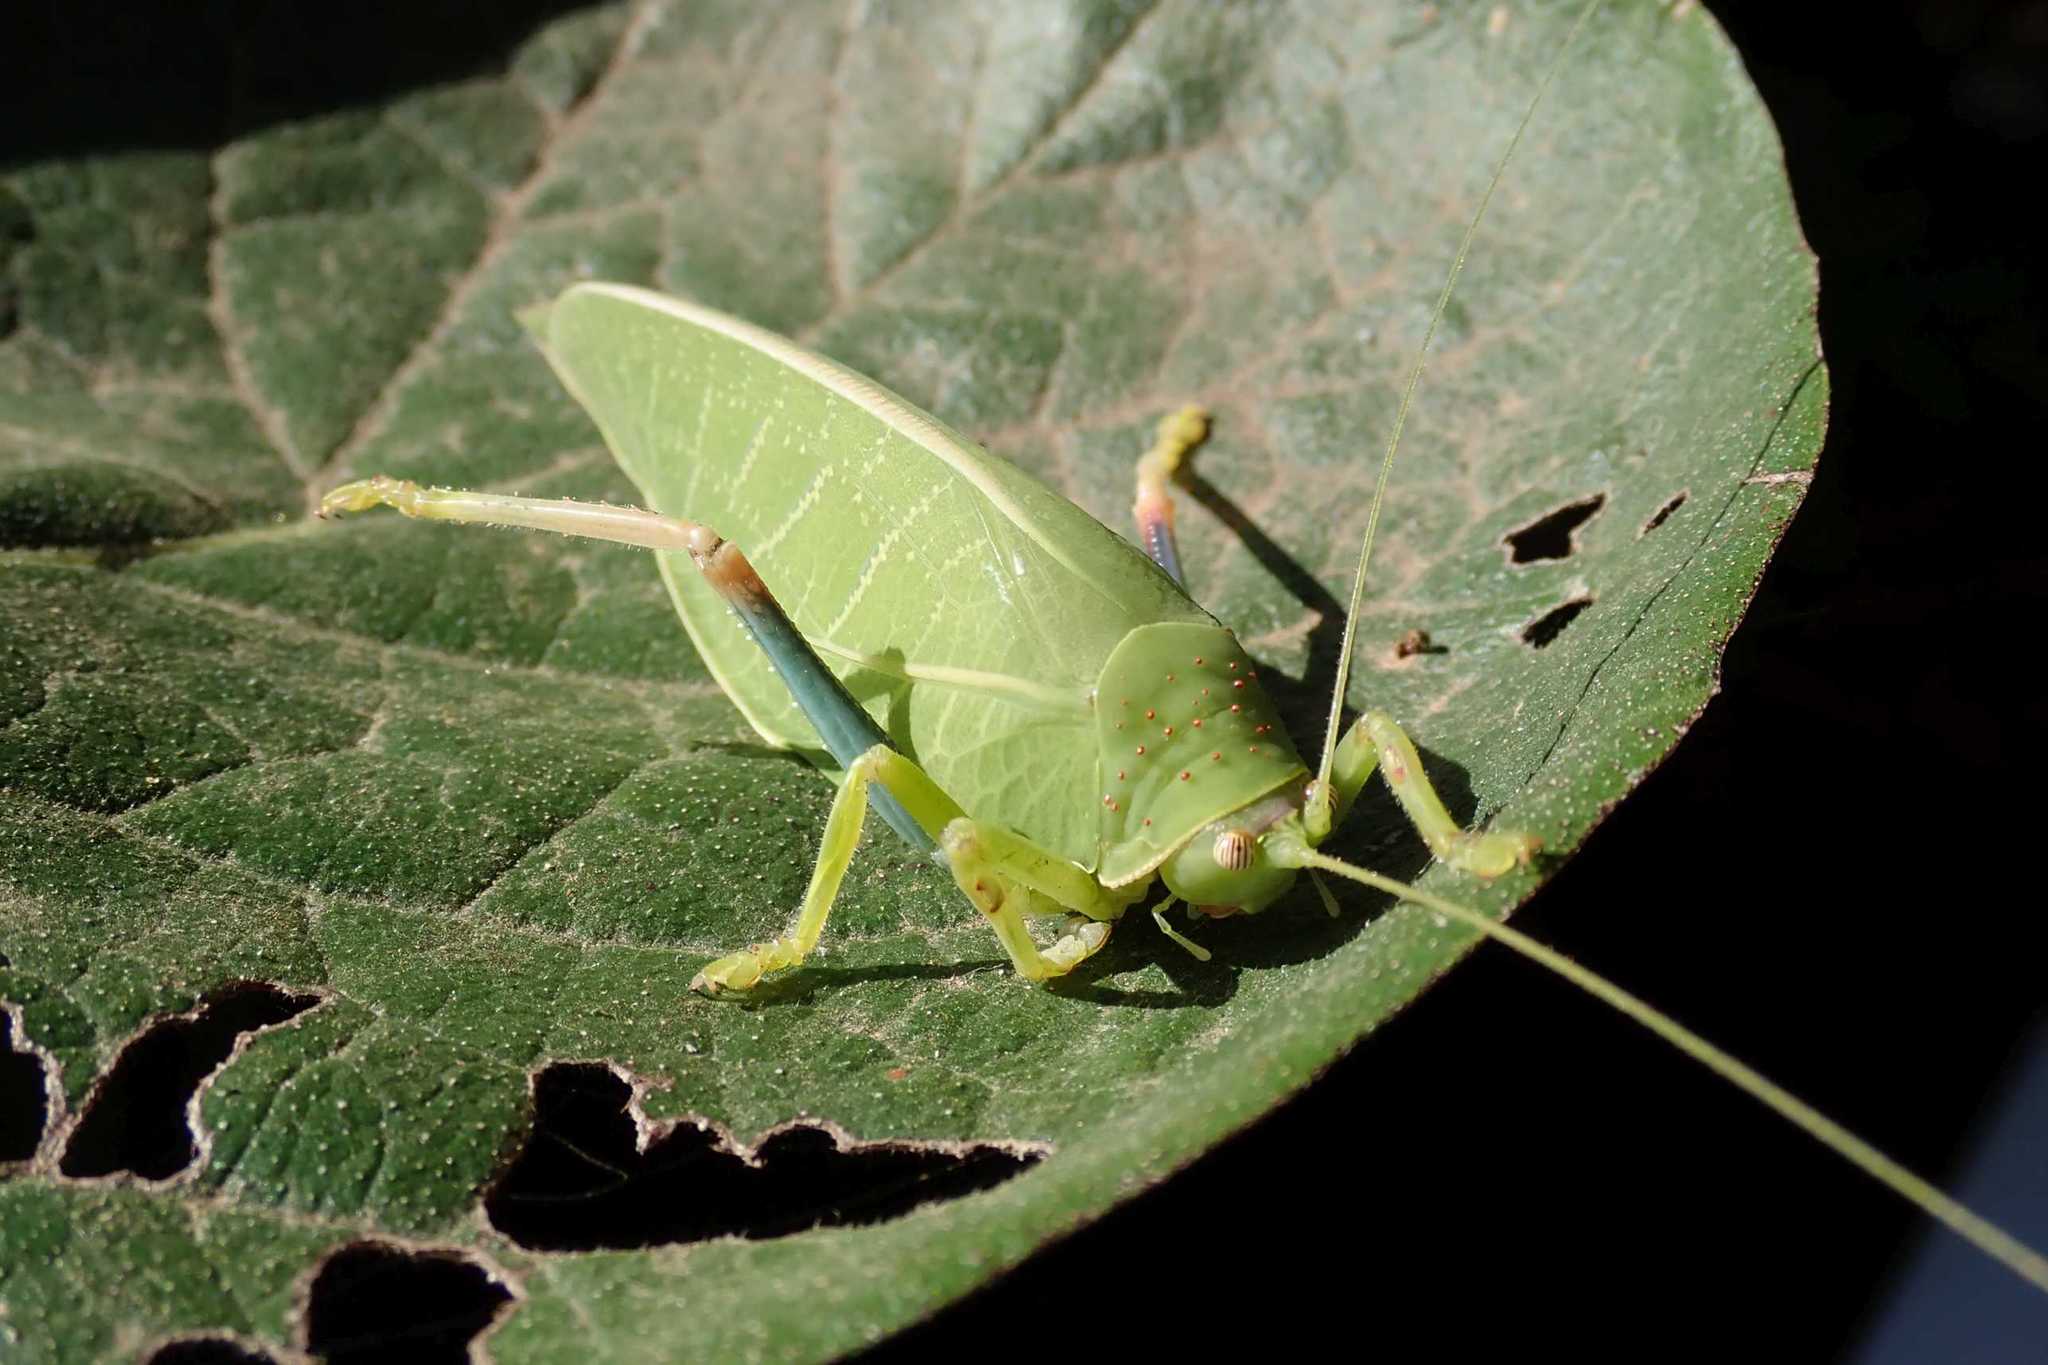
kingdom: Animalia
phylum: Arthropoda
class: Insecta
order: Orthoptera
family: Tettigoniidae
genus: Zabalius
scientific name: Zabalius ophthalmicus
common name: Blue-legged sylvan katydid
